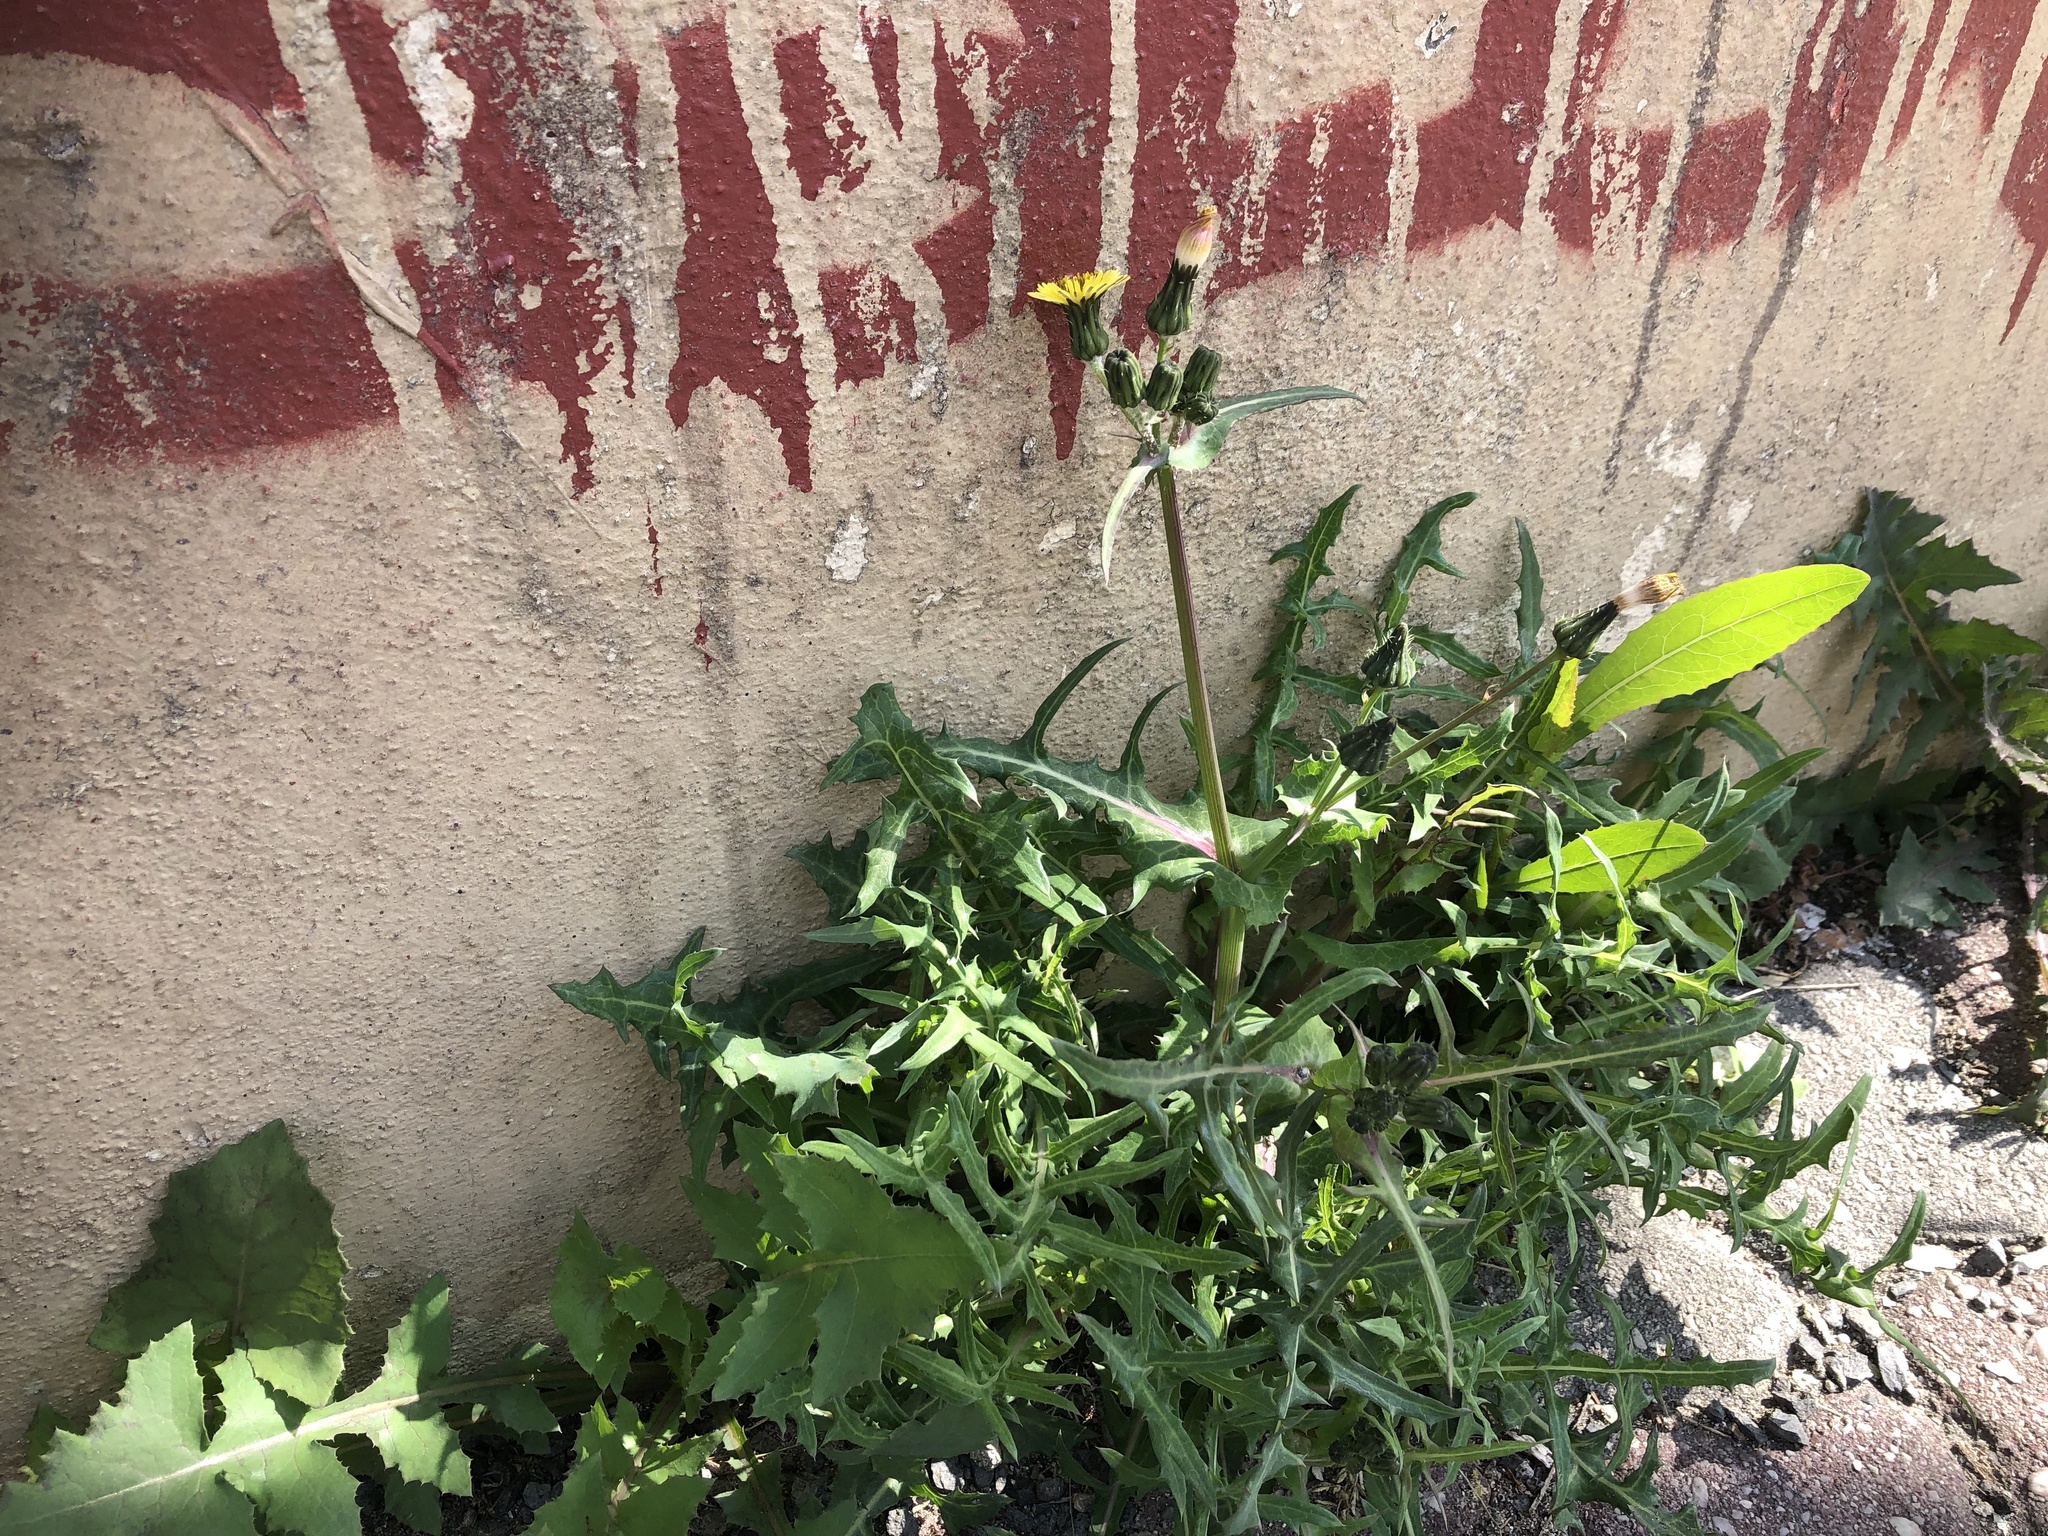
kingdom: Plantae
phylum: Tracheophyta
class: Magnoliopsida
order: Asterales
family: Asteraceae
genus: Sonchus
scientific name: Sonchus oleraceus
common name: Common sowthistle
